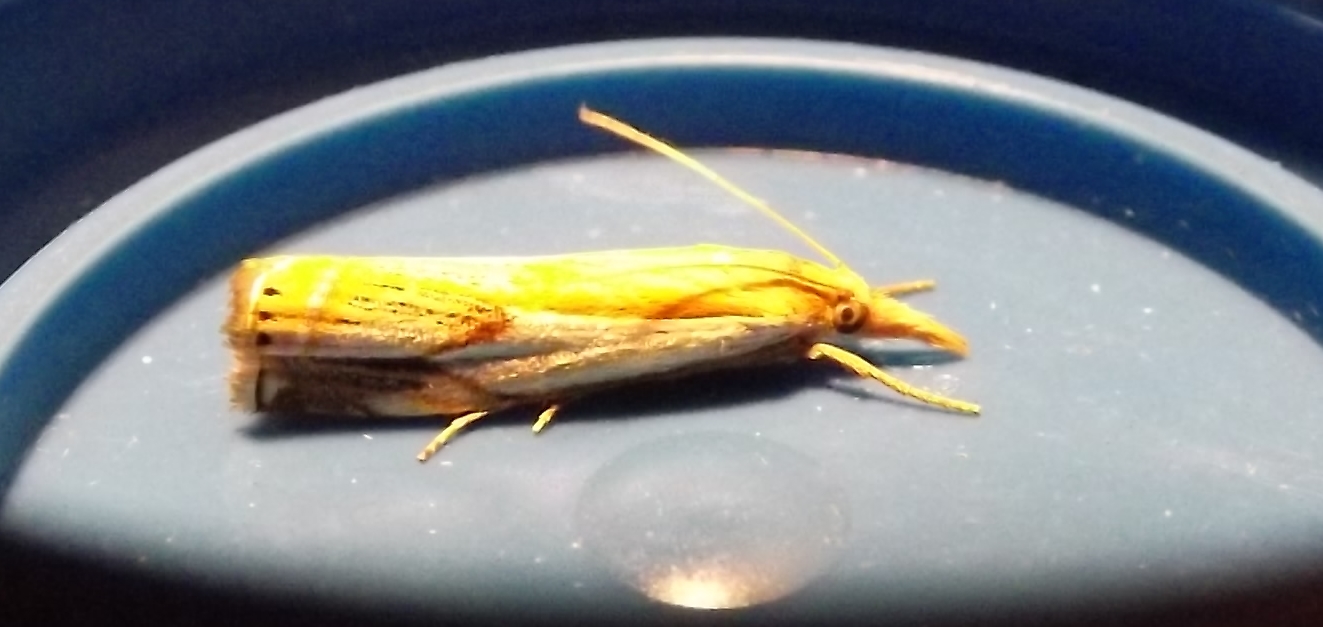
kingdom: Animalia
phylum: Arthropoda
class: Insecta
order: Lepidoptera
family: Crambidae
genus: Crambus
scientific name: Crambus agitatellus
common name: Double-banded grass-veneer
